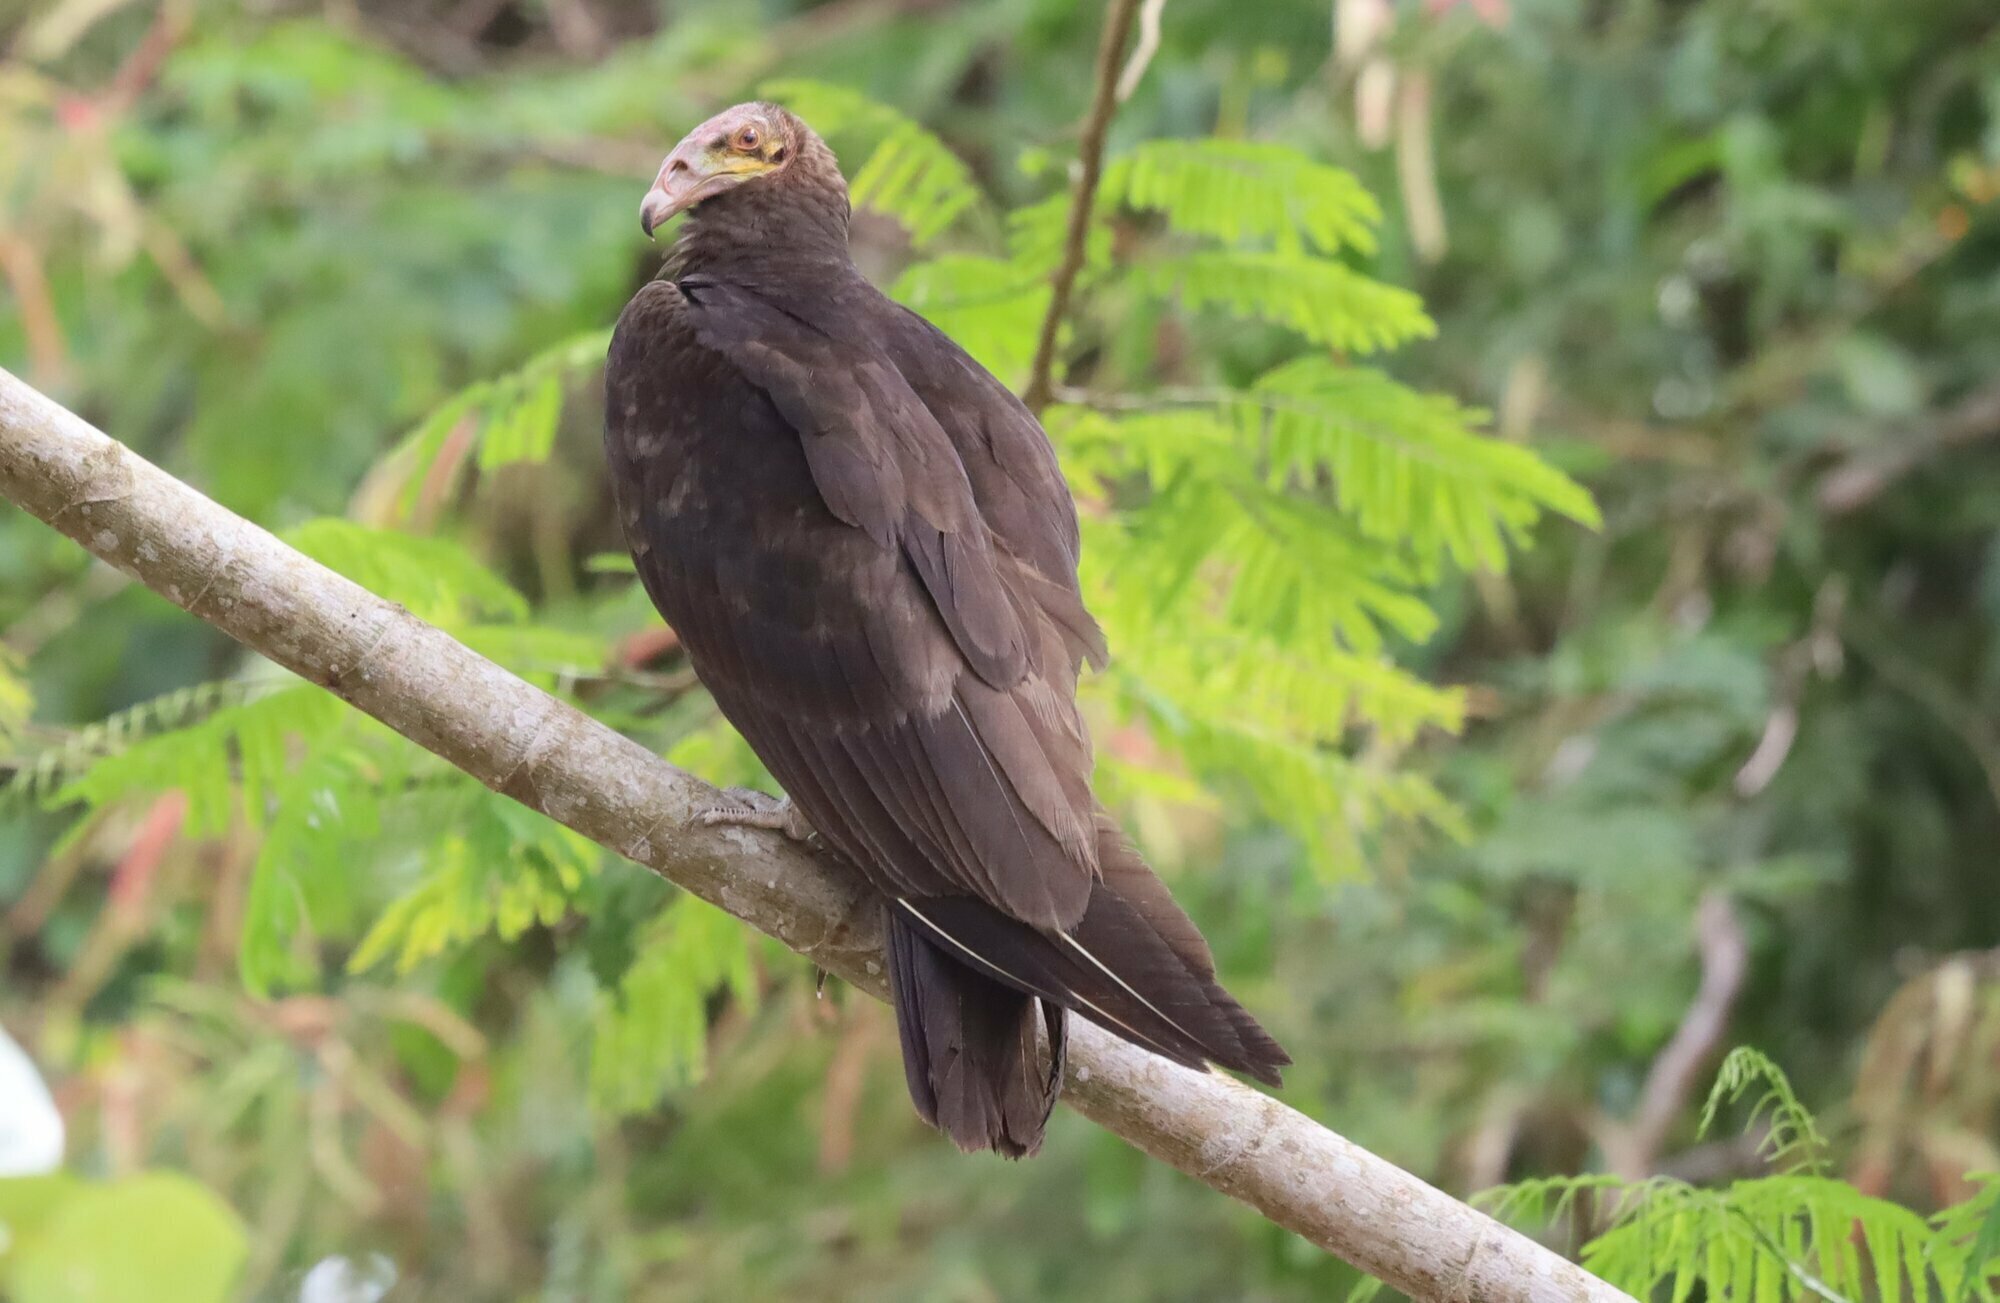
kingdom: Animalia
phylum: Chordata
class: Aves
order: Accipitriformes
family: Cathartidae
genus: Cathartes
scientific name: Cathartes burrovianus
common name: Lesser yellow-headed vulture
